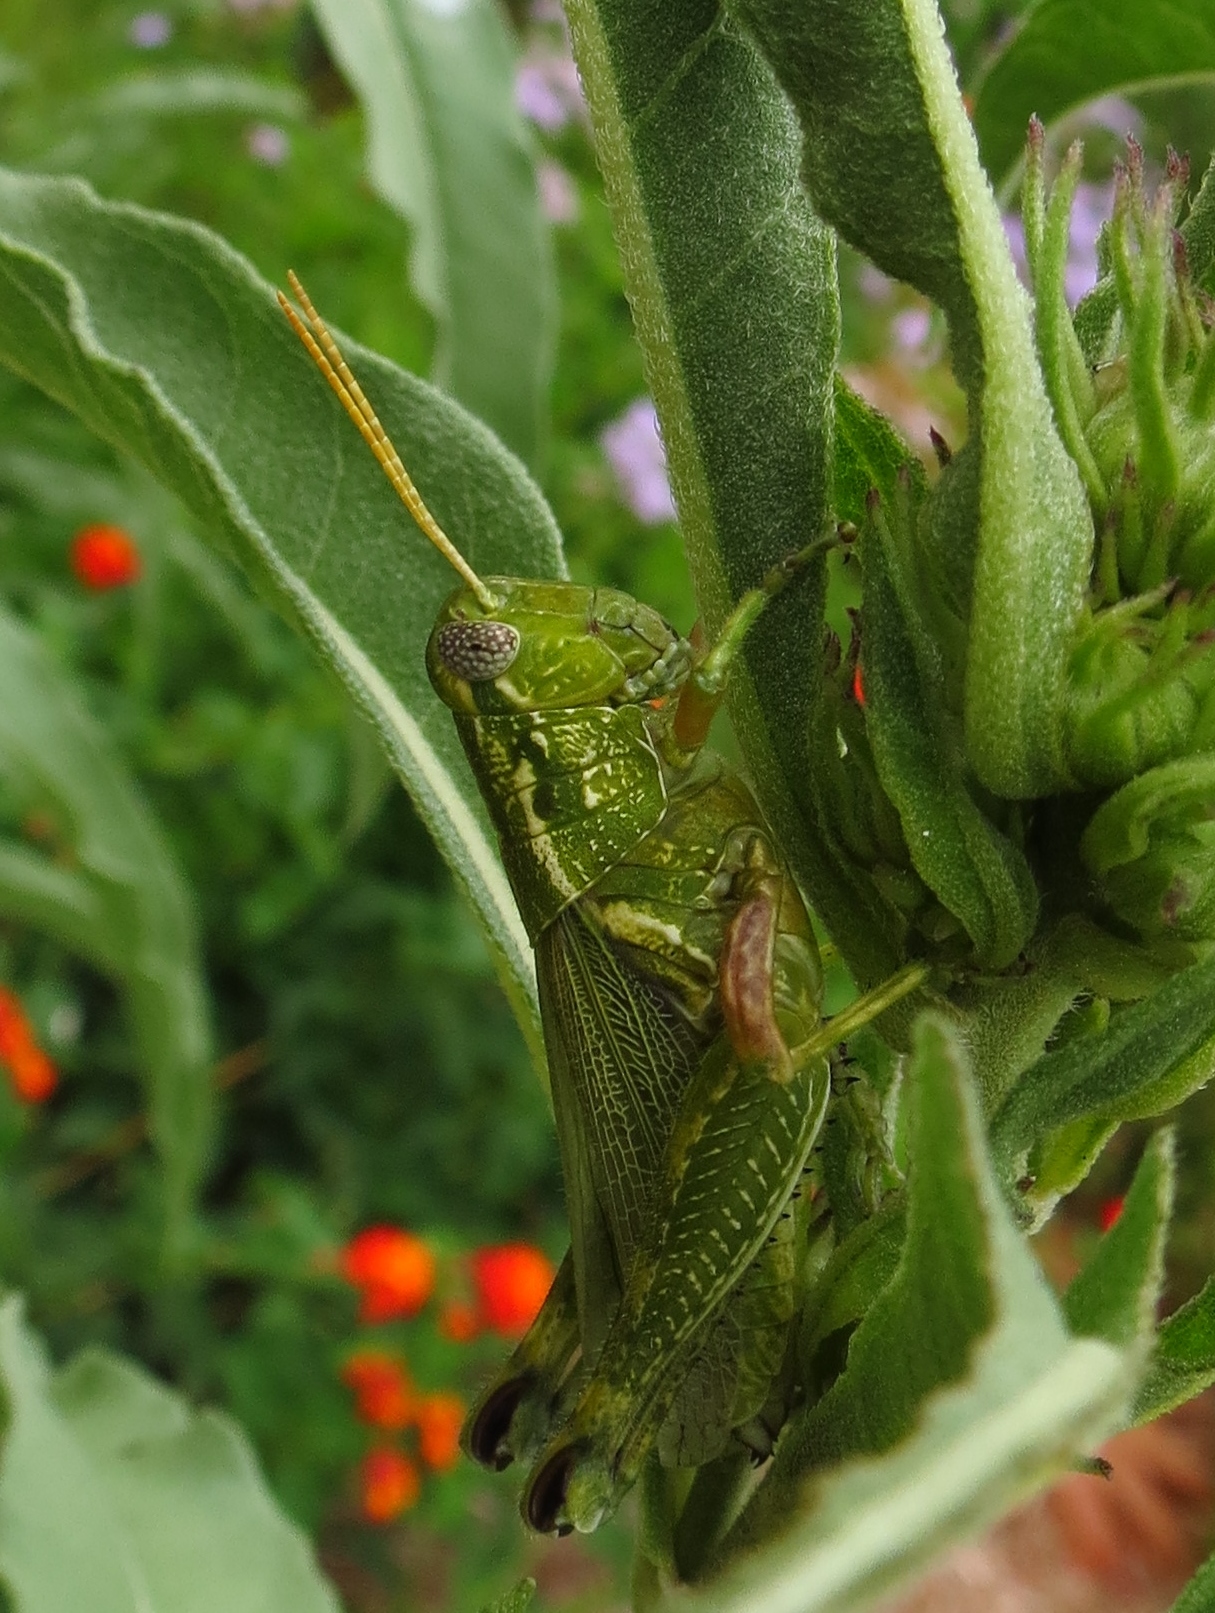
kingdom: Animalia
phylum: Arthropoda
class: Insecta
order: Orthoptera
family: Acrididae
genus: Campylacantha
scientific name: Campylacantha olivacea
